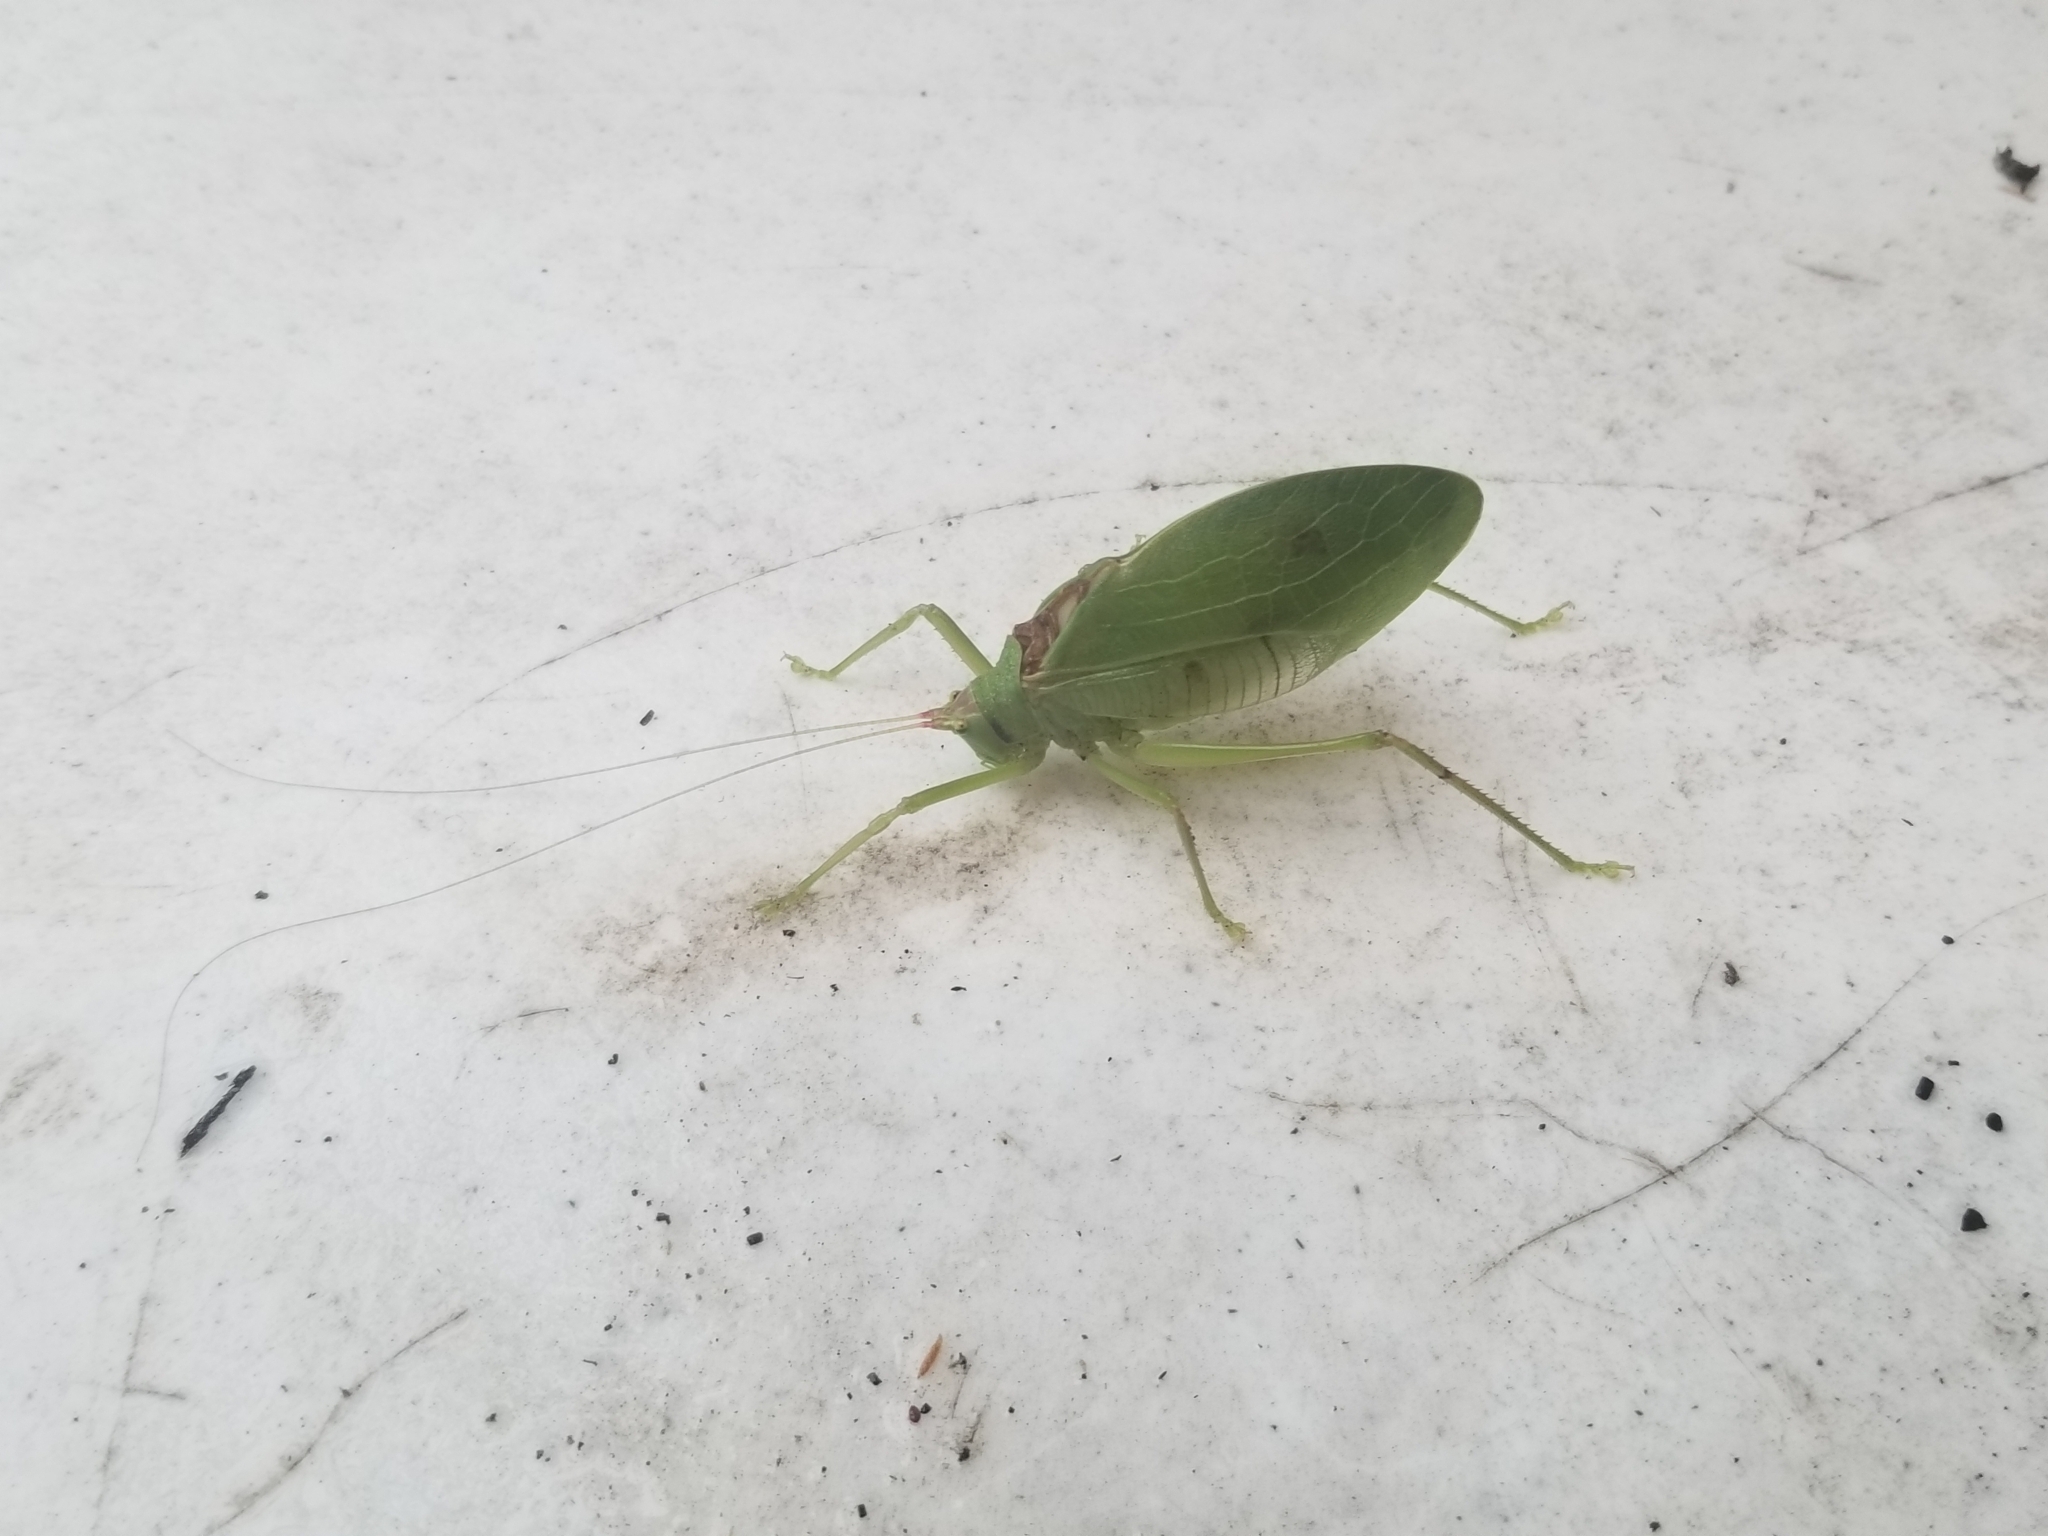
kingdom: Animalia
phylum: Arthropoda
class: Insecta
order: Orthoptera
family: Tettigoniidae
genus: Pterophylla
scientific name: Pterophylla camellifolia
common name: Common true katydid
